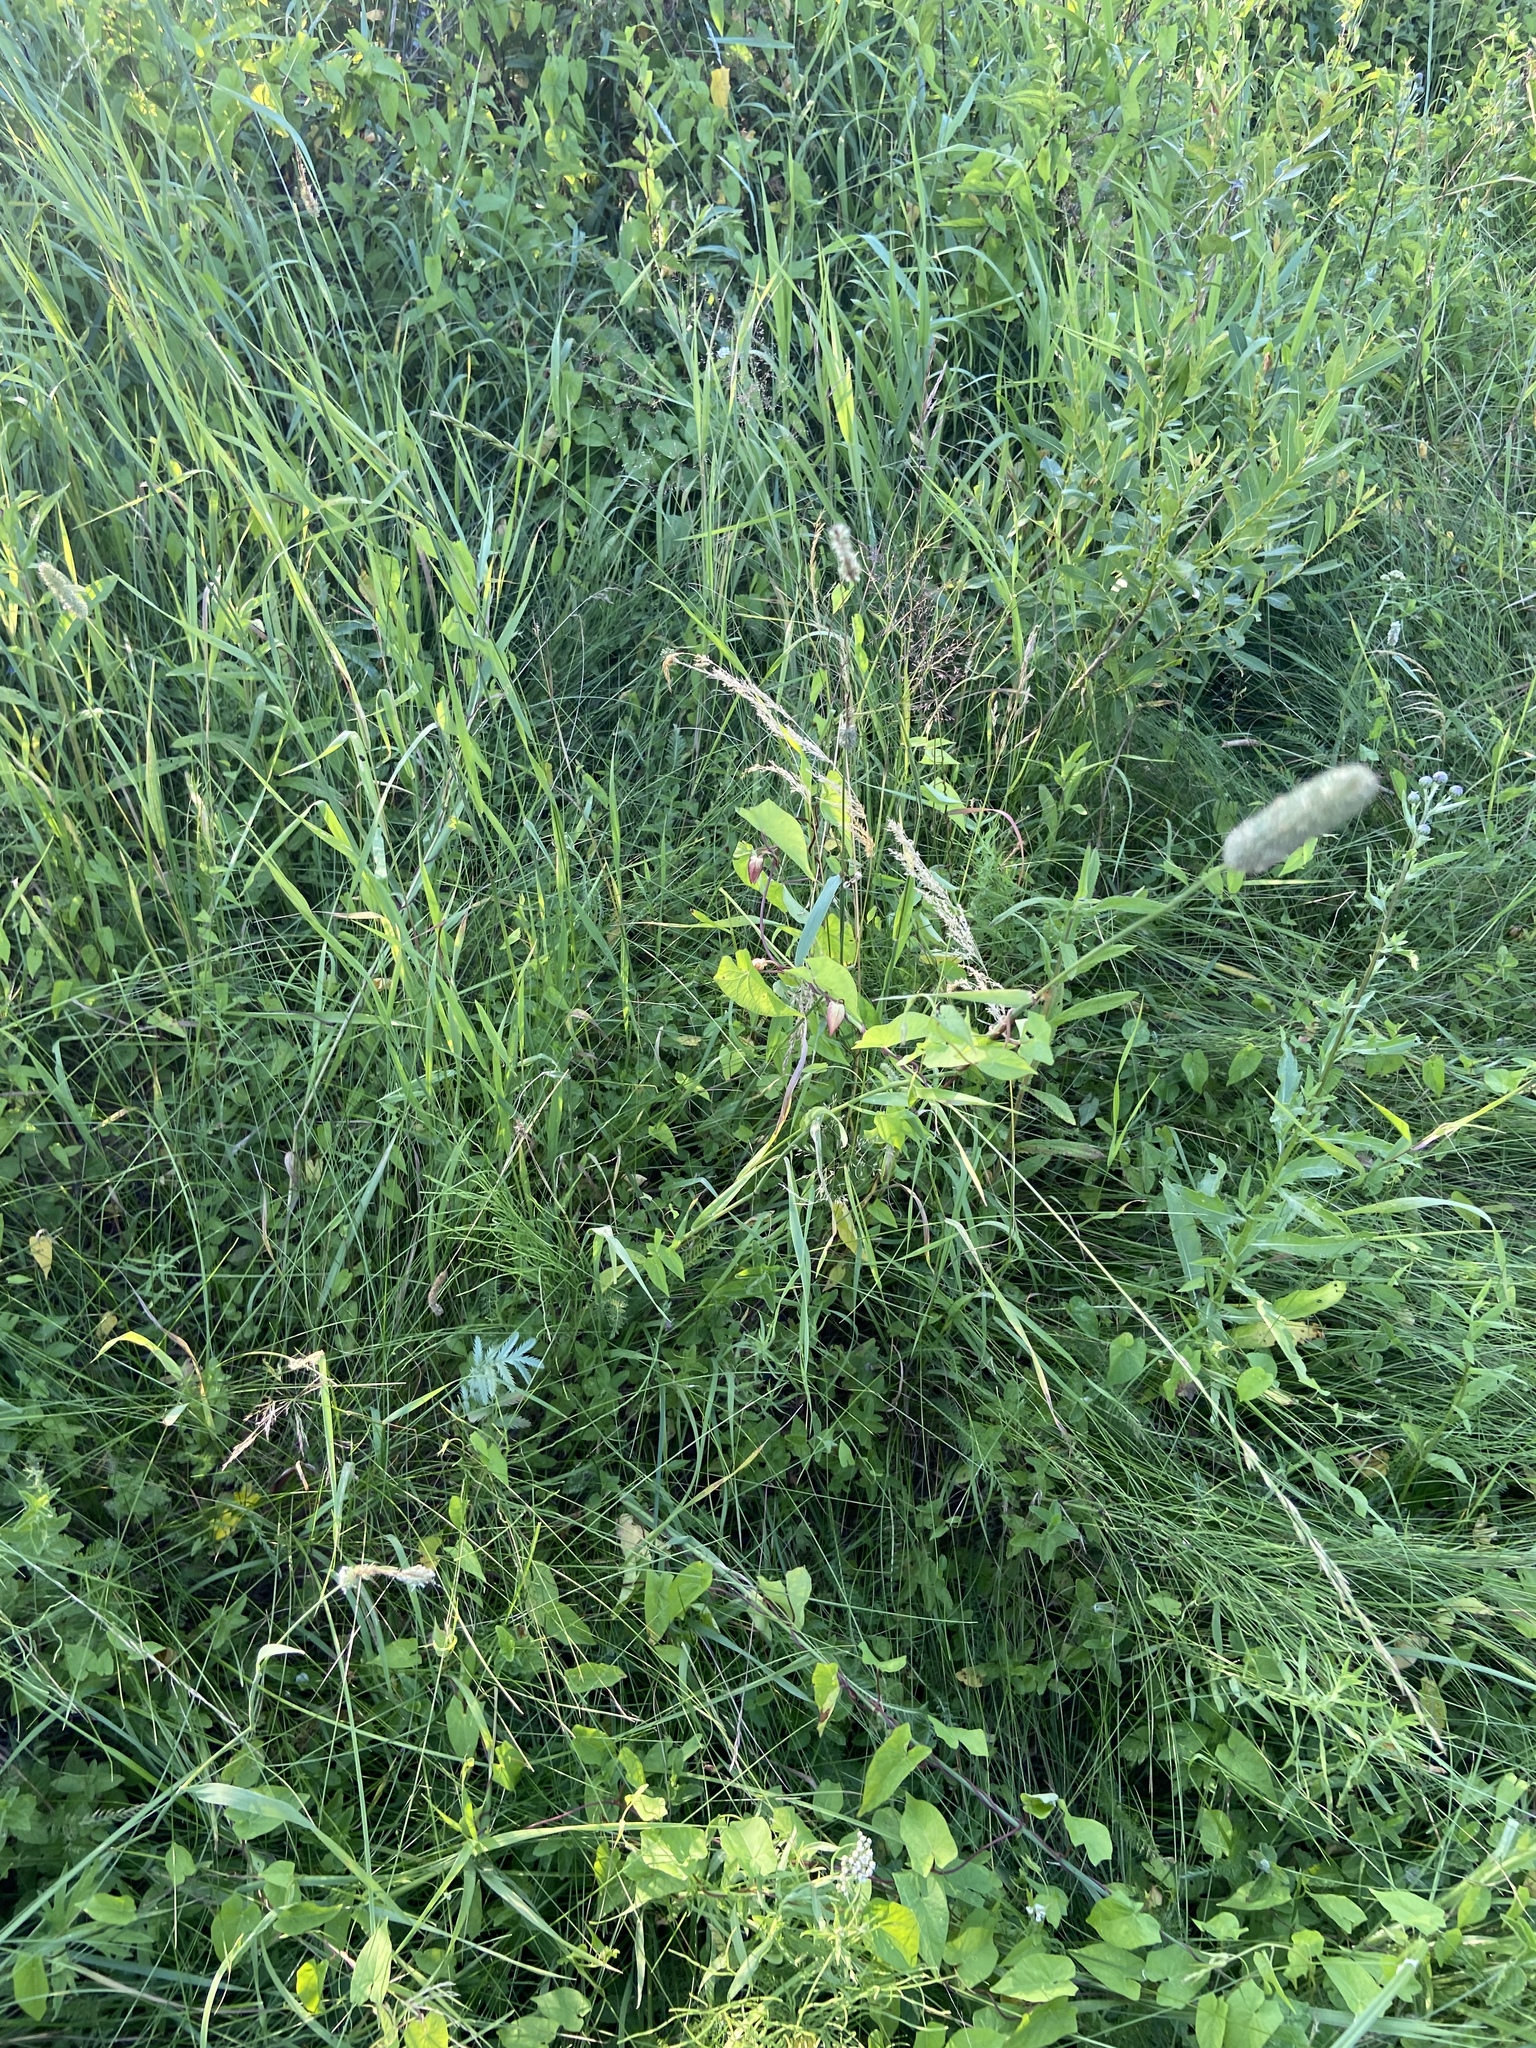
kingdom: Plantae
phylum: Tracheophyta
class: Liliopsida
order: Poales
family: Poaceae
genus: Phleum
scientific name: Phleum pratense
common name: Timothy grass
